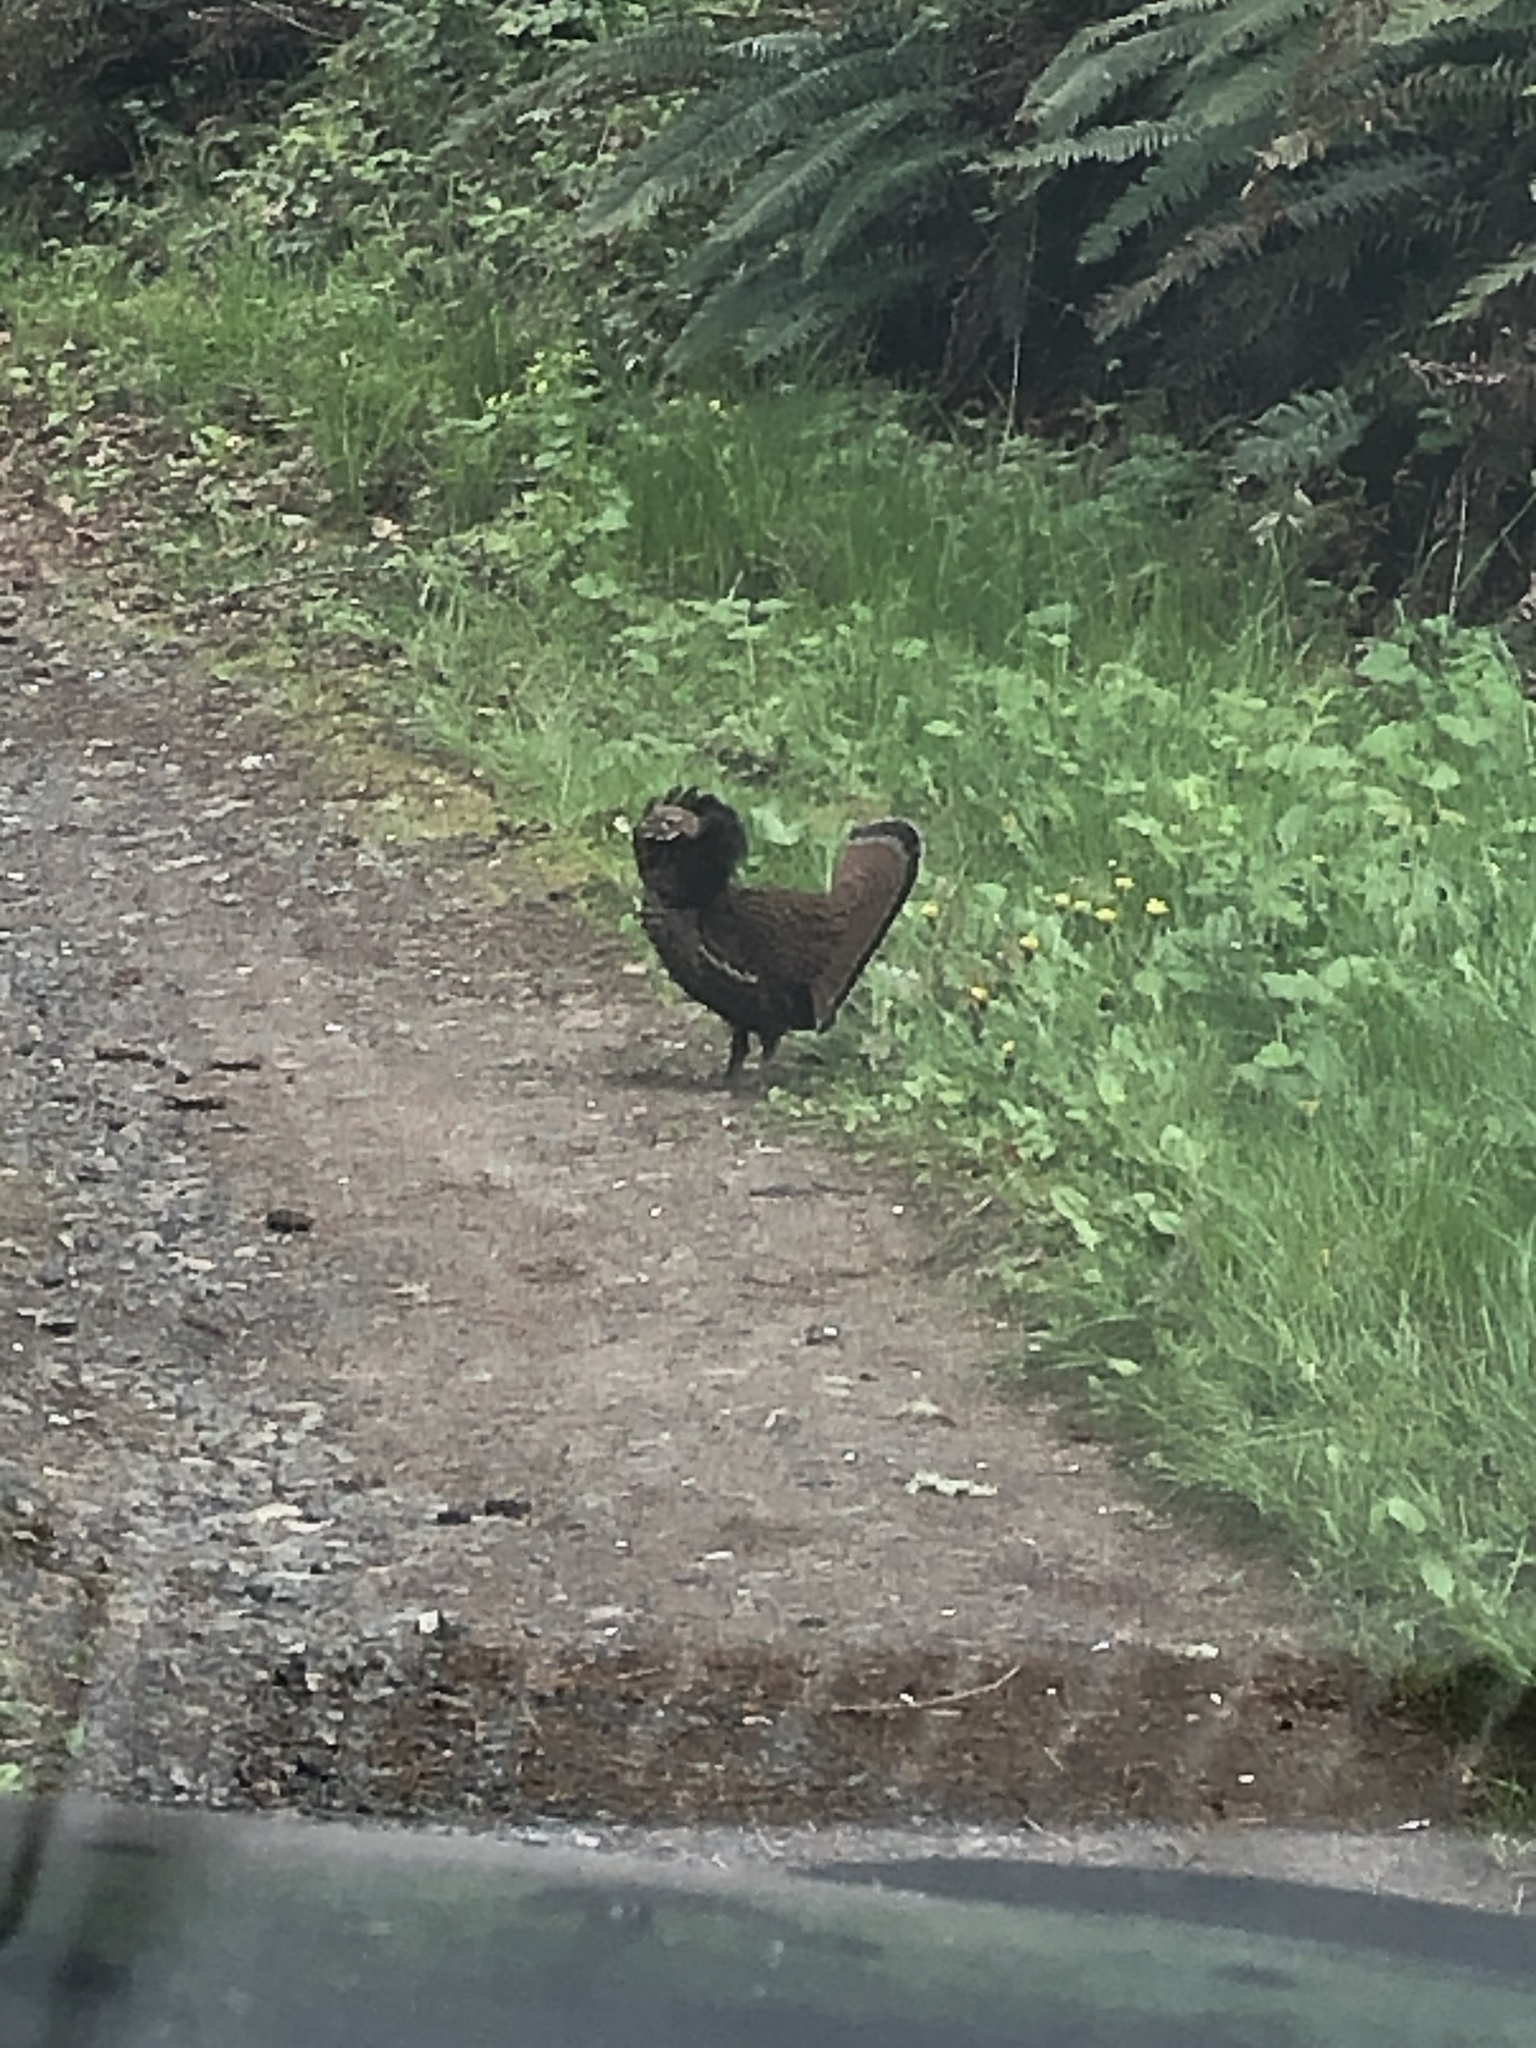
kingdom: Animalia
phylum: Chordata
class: Aves
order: Galliformes
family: Phasianidae
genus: Dendragapus
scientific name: Dendragapus fuliginosus
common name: Sooty grouse
